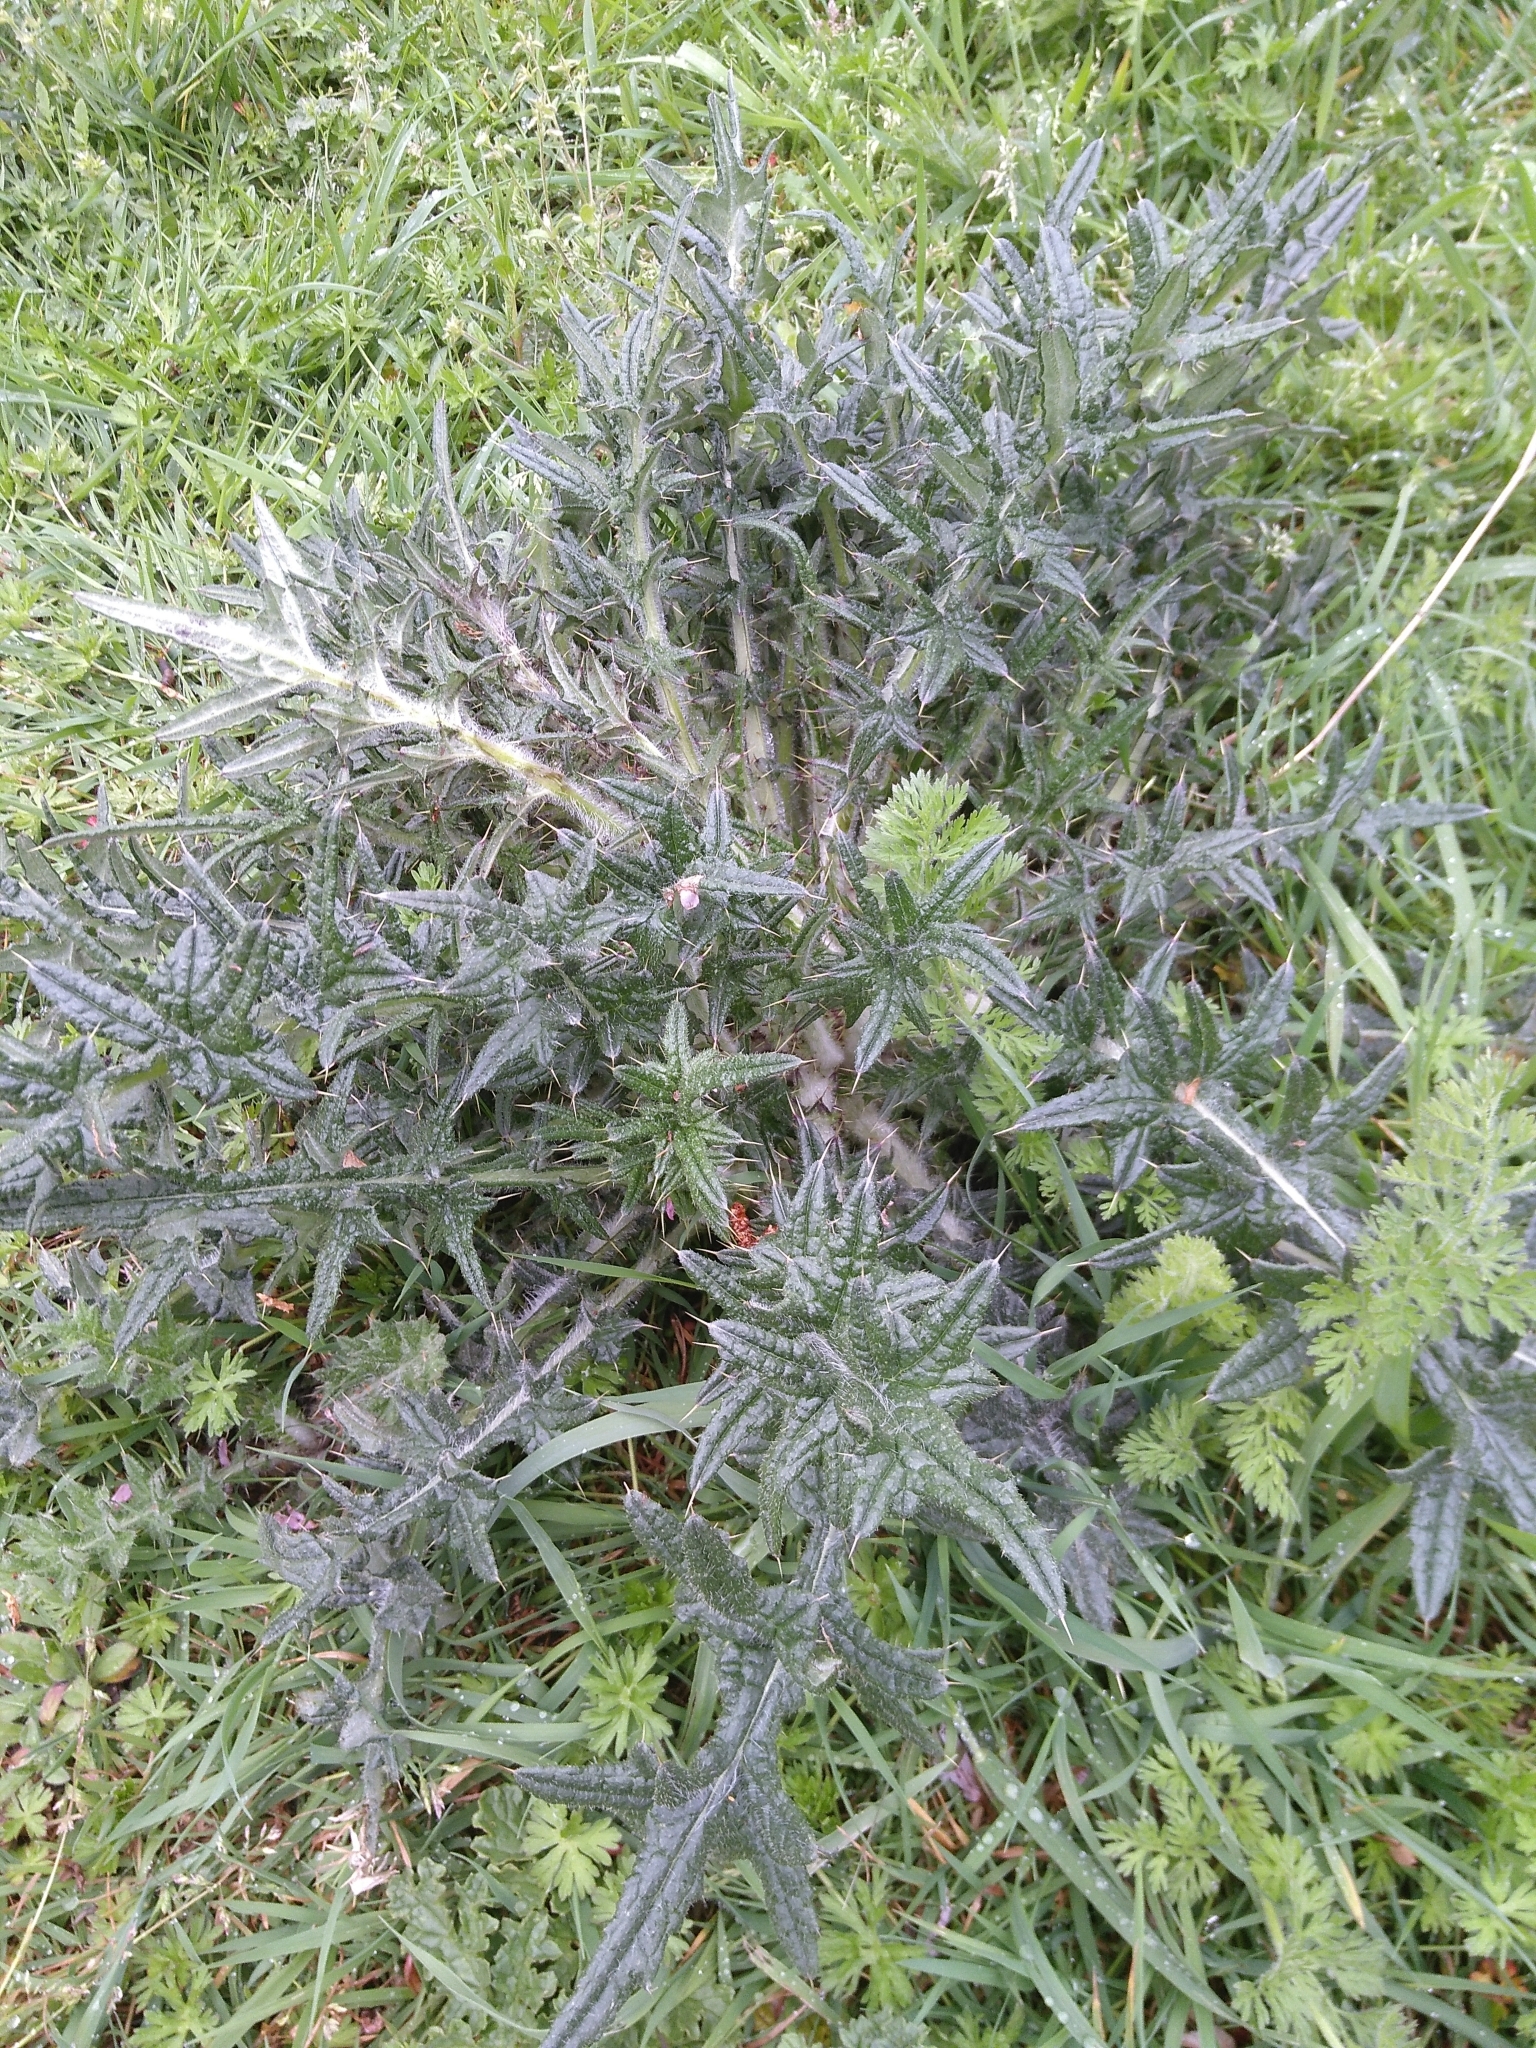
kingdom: Plantae
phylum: Tracheophyta
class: Magnoliopsida
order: Asterales
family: Asteraceae
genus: Cirsium
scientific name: Cirsium vulgare
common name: Bull thistle
